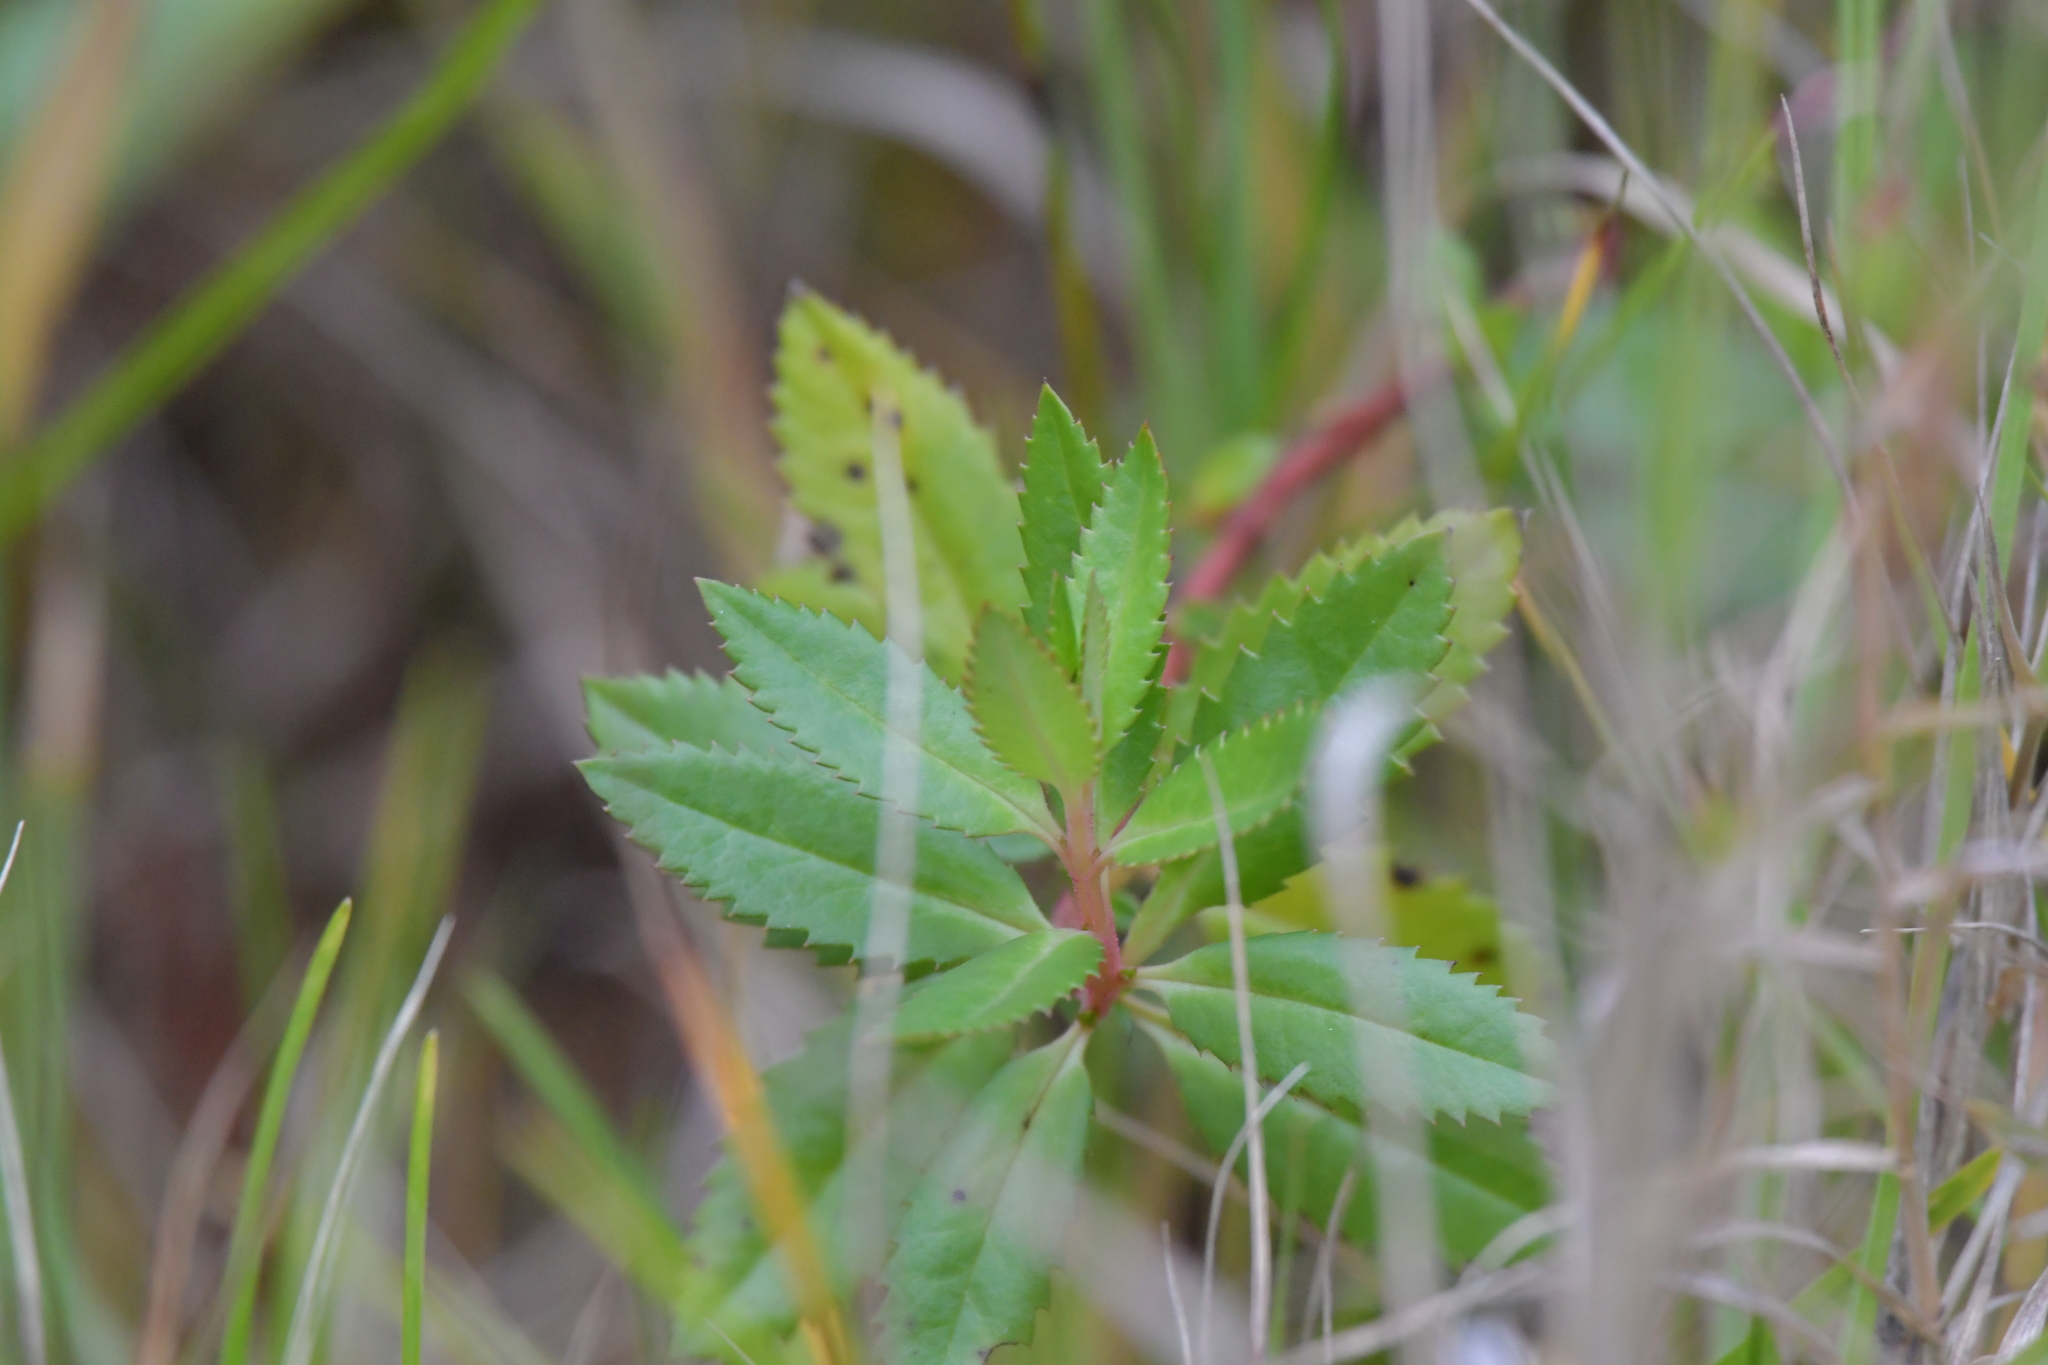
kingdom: Plantae
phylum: Tracheophyta
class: Magnoliopsida
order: Saxifragales
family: Haloragaceae
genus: Haloragis
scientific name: Haloragis erecta
